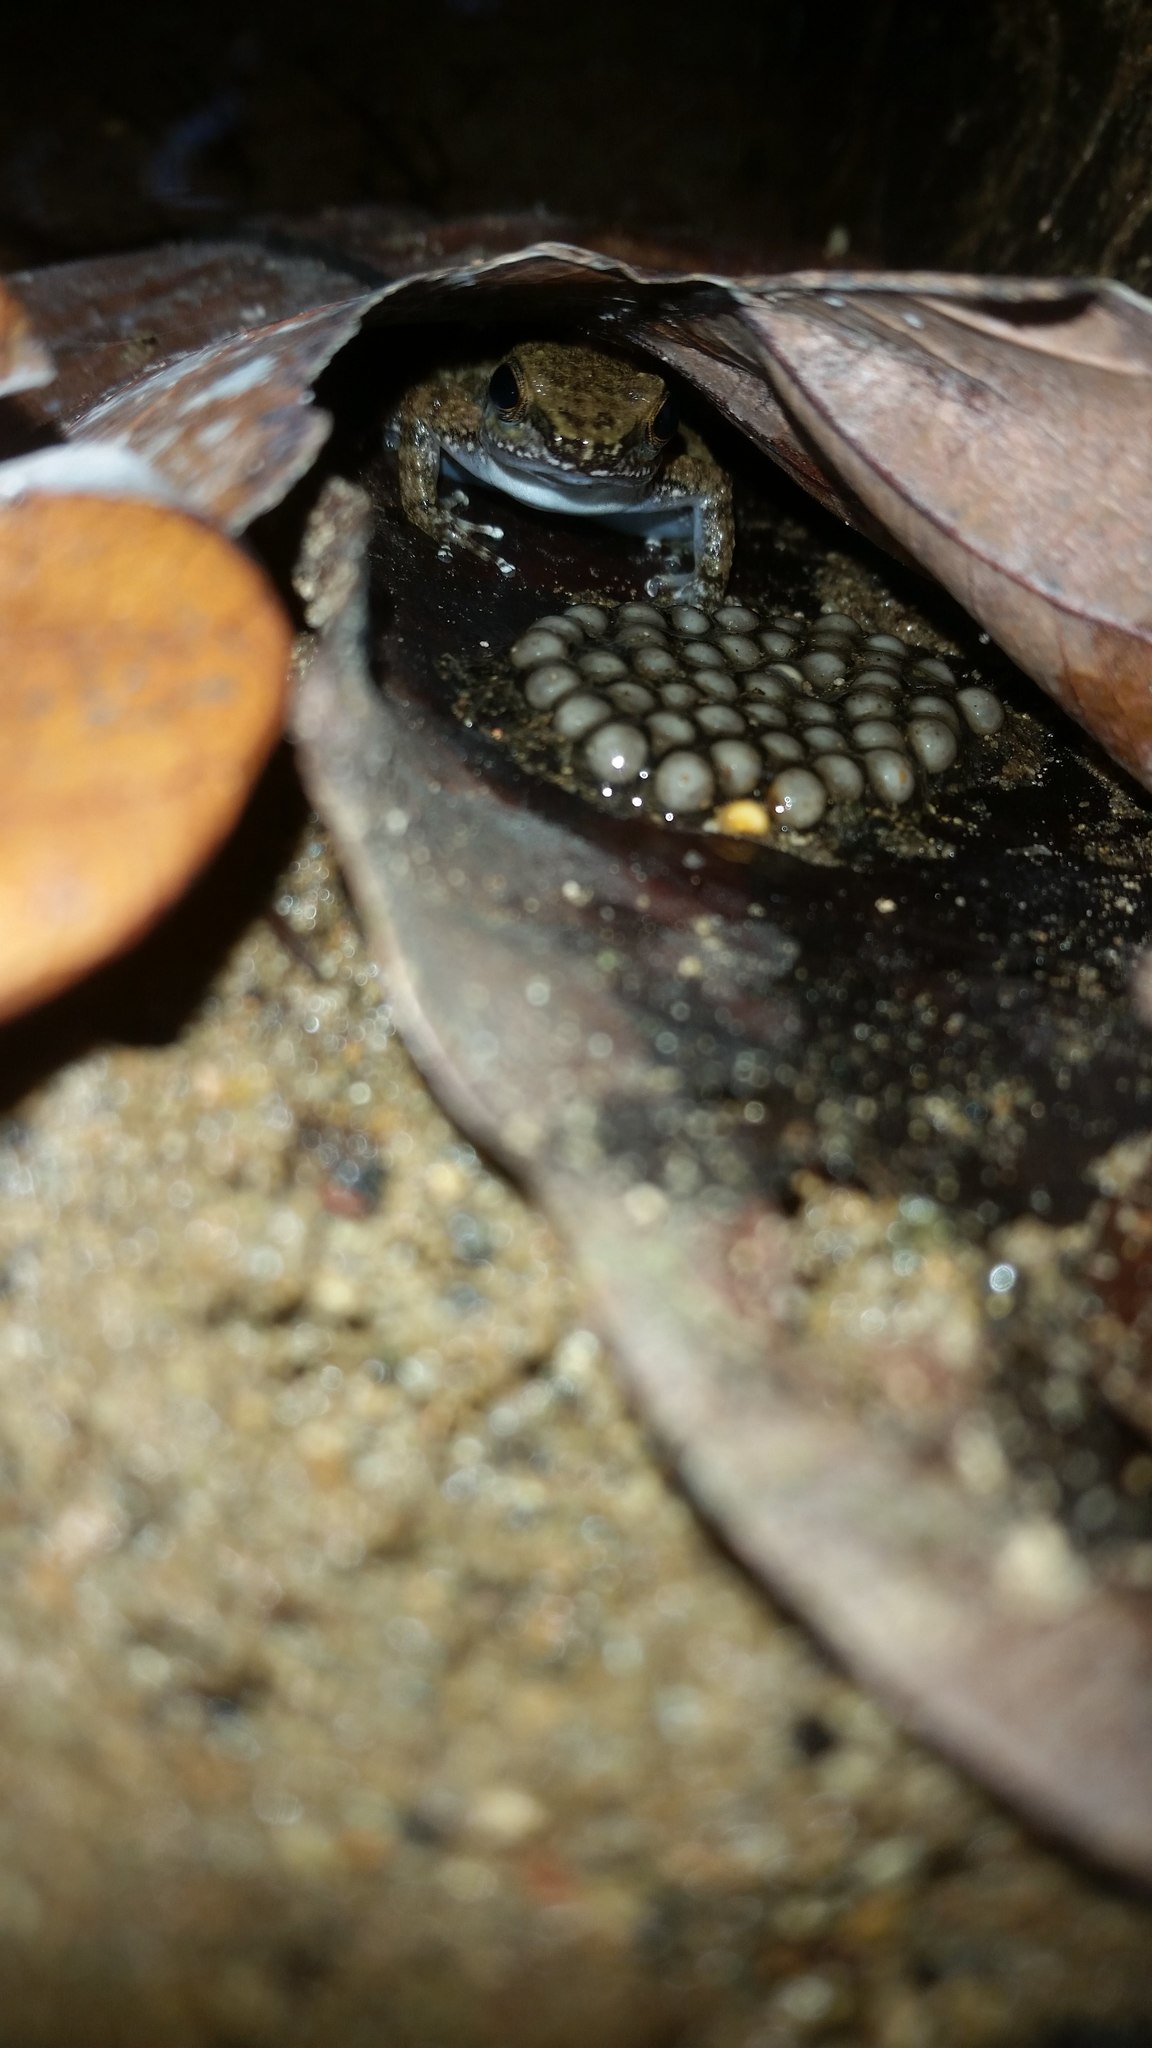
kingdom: Animalia
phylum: Chordata
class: Amphibia
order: Anura
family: Dendrobatidae
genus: Colostethus
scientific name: Colostethus inguinalis
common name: Common rocket frog
